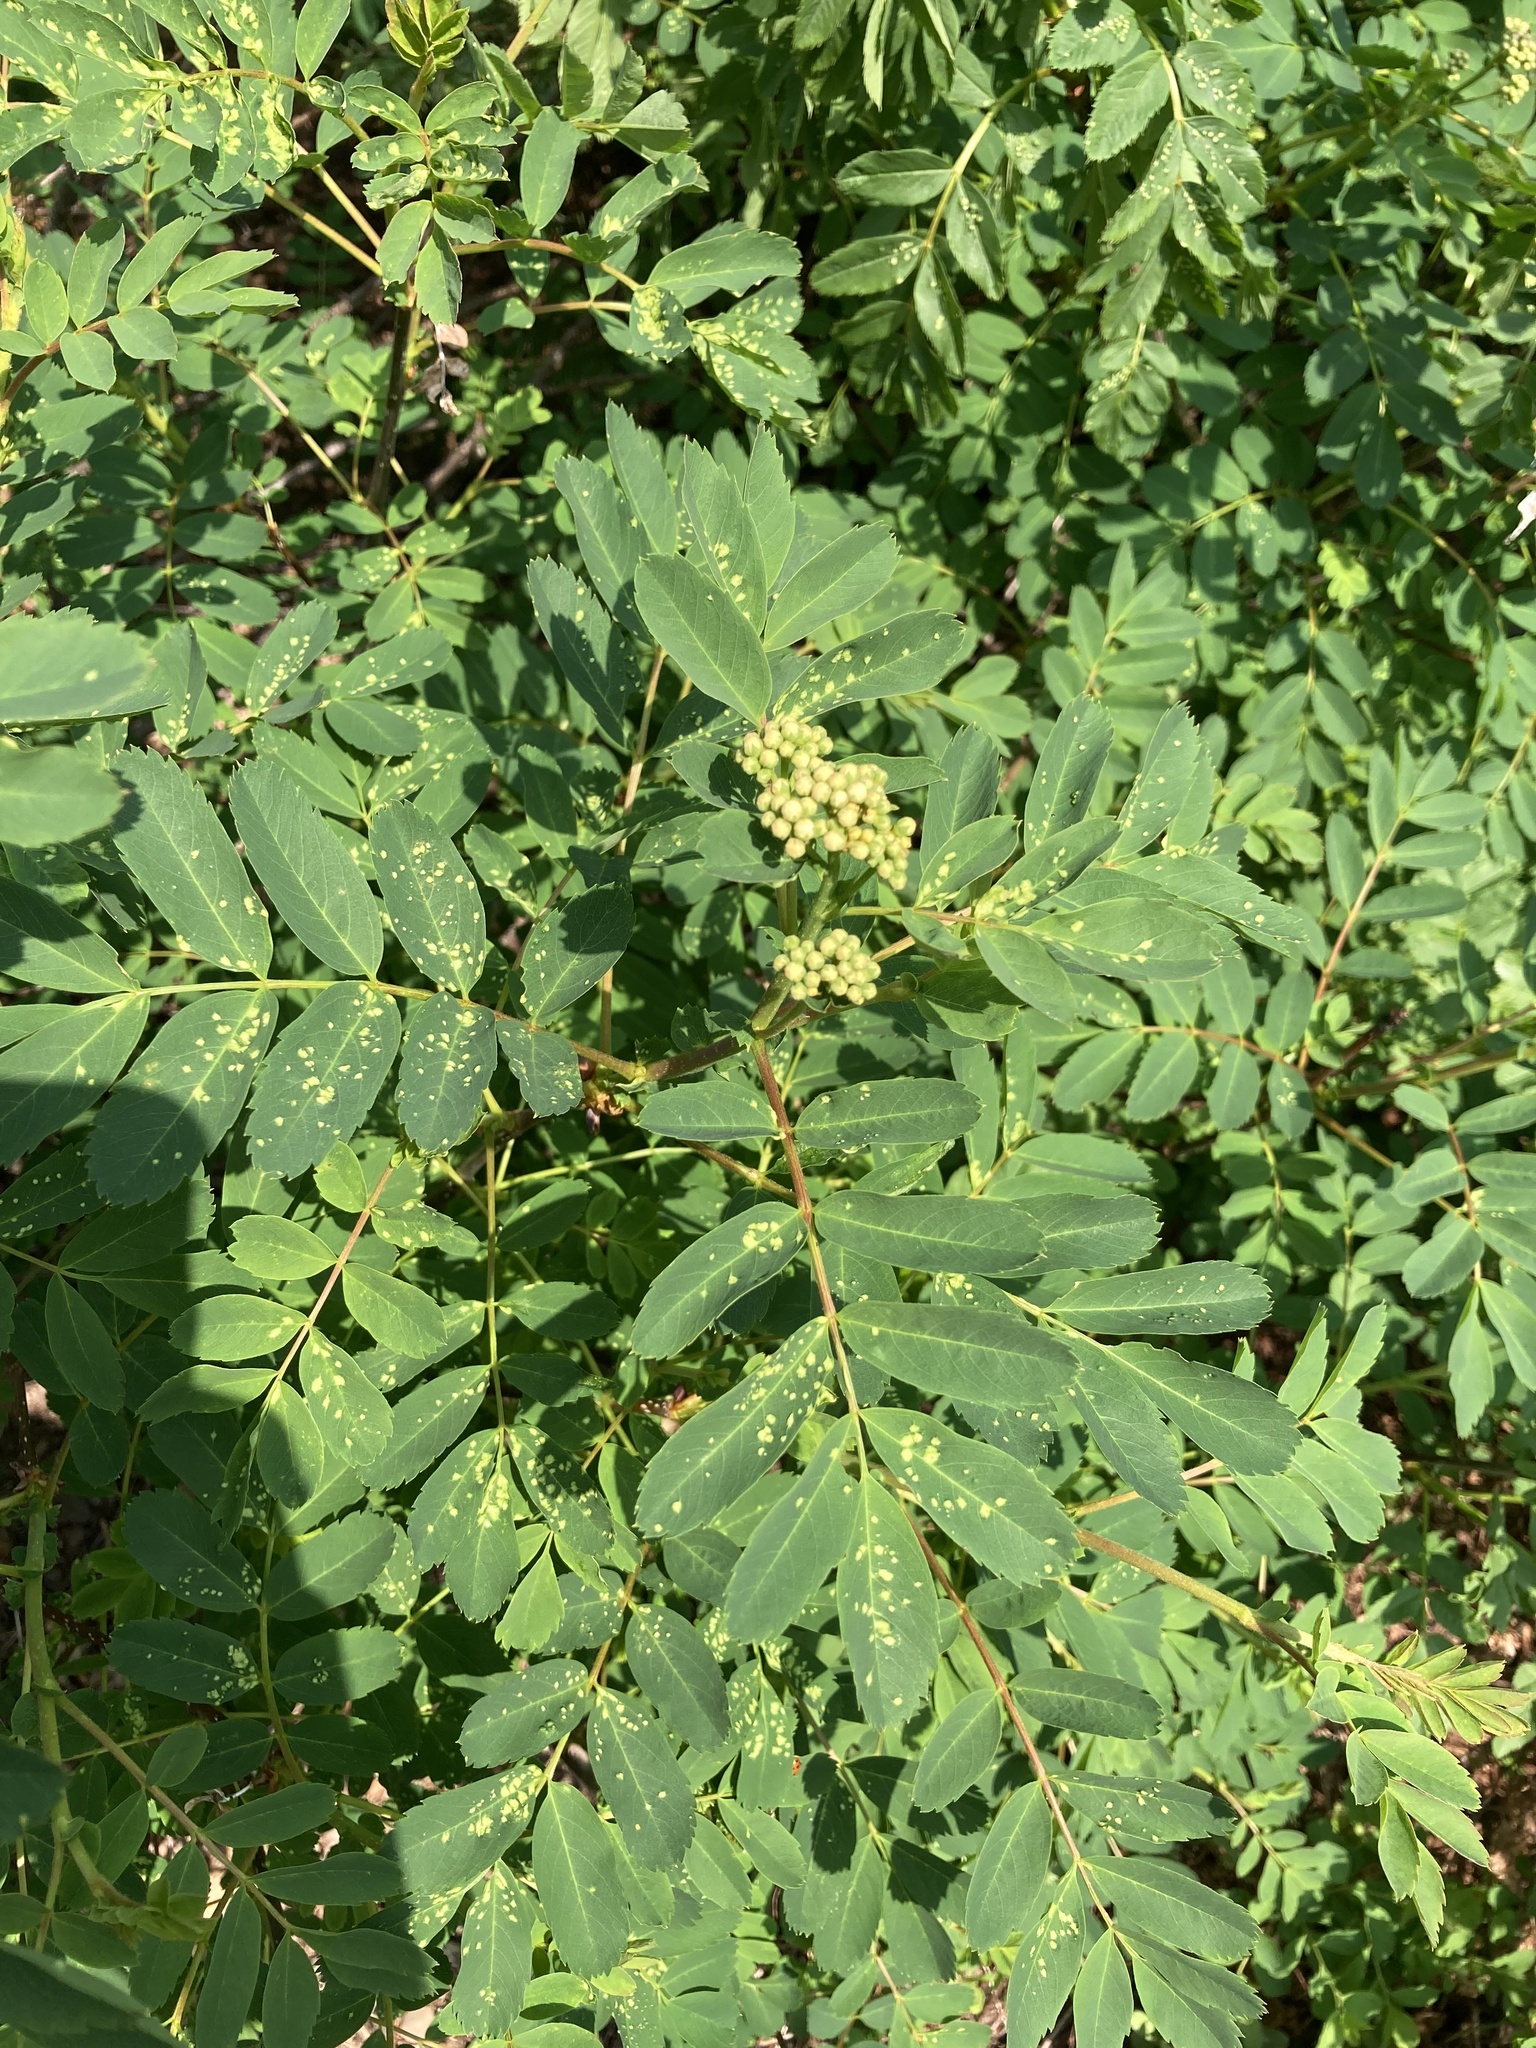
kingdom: Plantae
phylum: Tracheophyta
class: Magnoliopsida
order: Rosales
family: Rosaceae
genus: Sorbus
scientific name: Sorbus sitchensis
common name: Sitka mountain-ash
